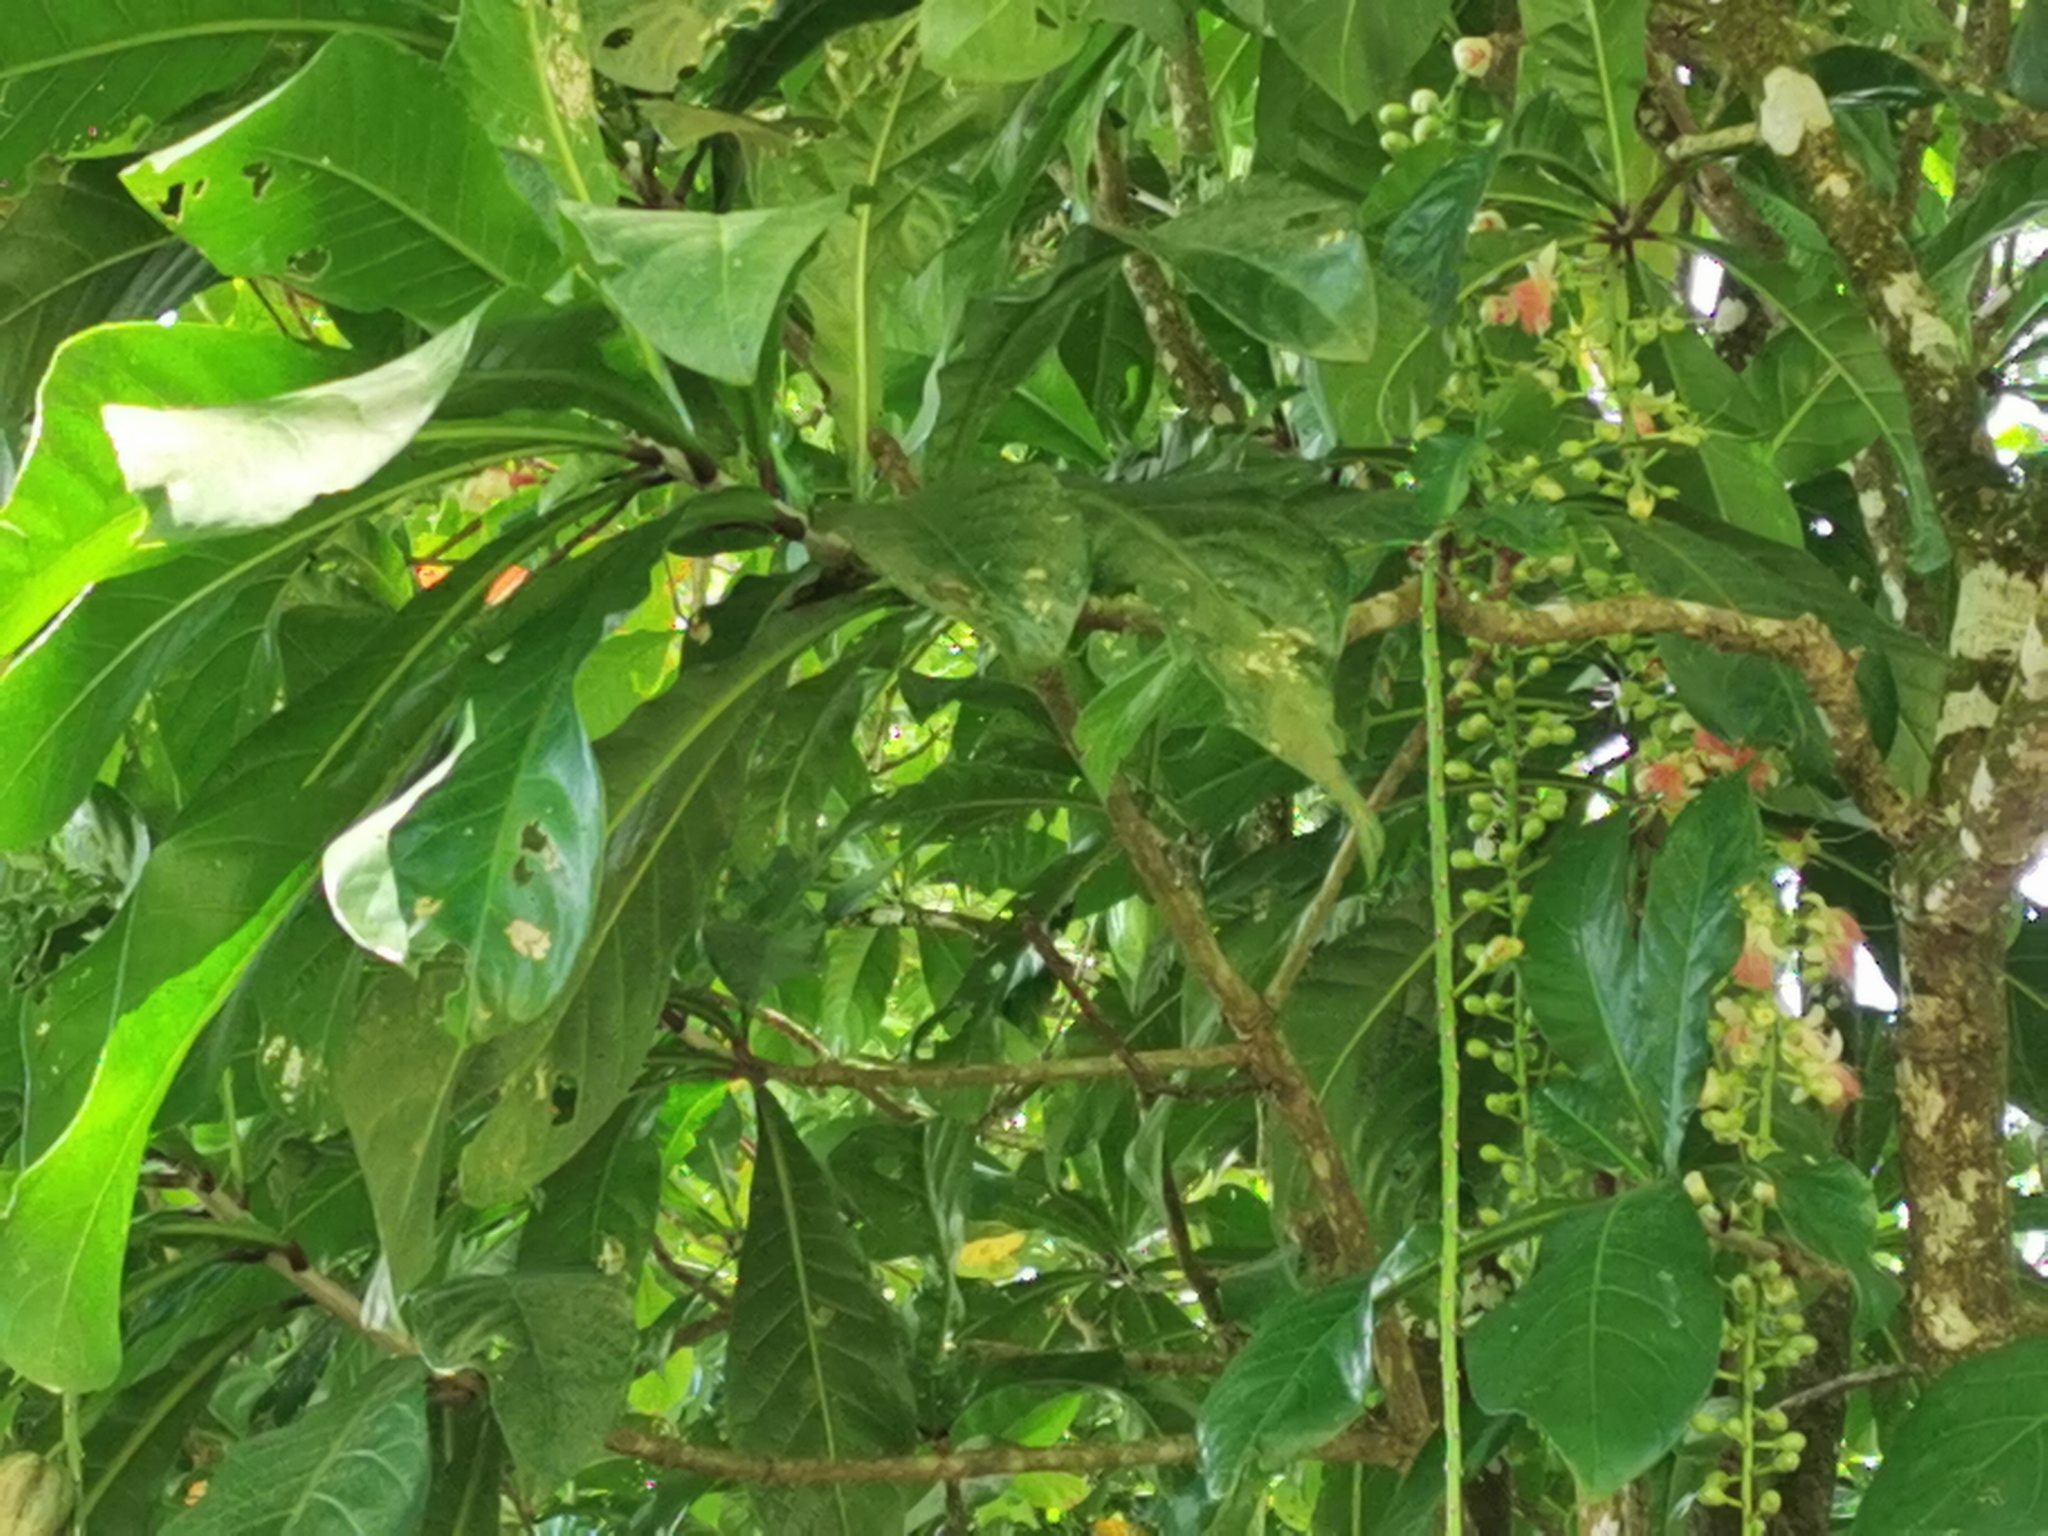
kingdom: Plantae
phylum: Tracheophyta
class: Magnoliopsida
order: Ericales
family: Lecythidaceae
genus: Barringtonia
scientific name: Barringtonia racemosa
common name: Brackwater mangrove
